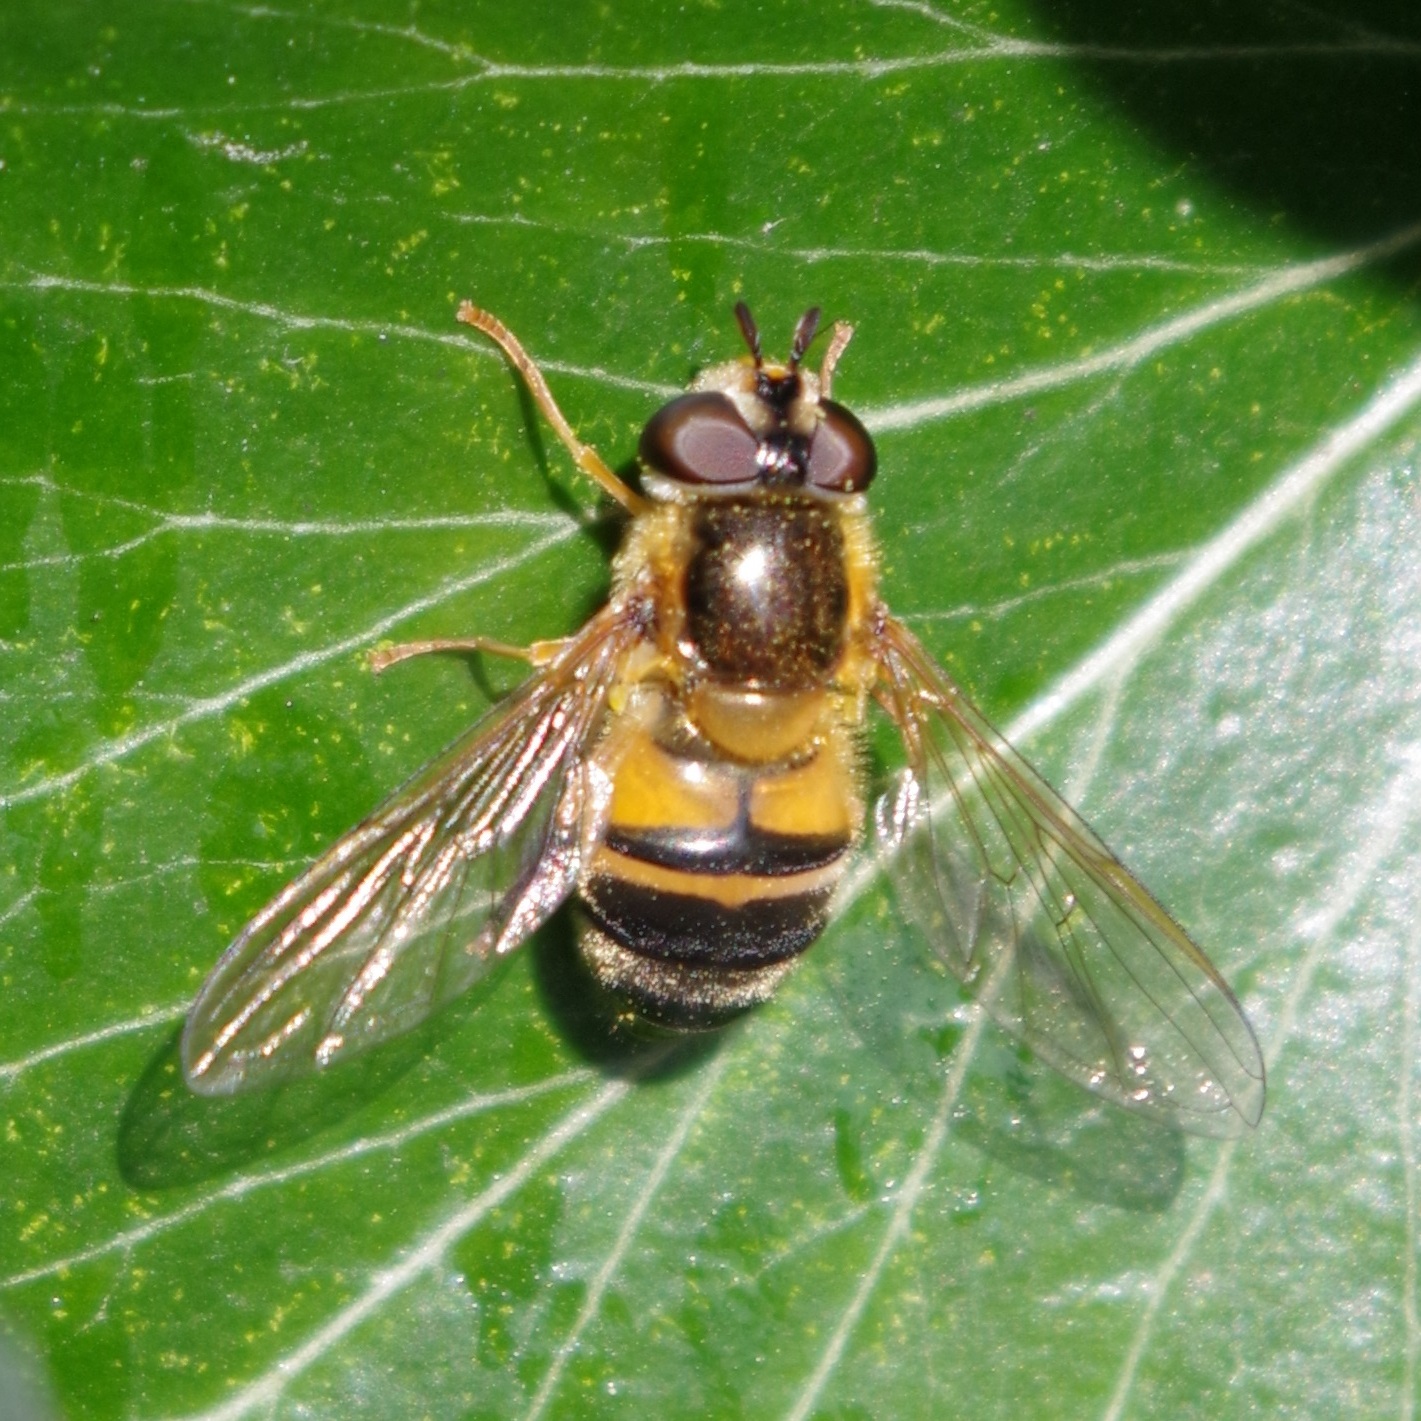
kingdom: Animalia
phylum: Arthropoda
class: Insecta
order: Diptera
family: Syrphidae
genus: Epistrophe
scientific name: Epistrophe eligans
